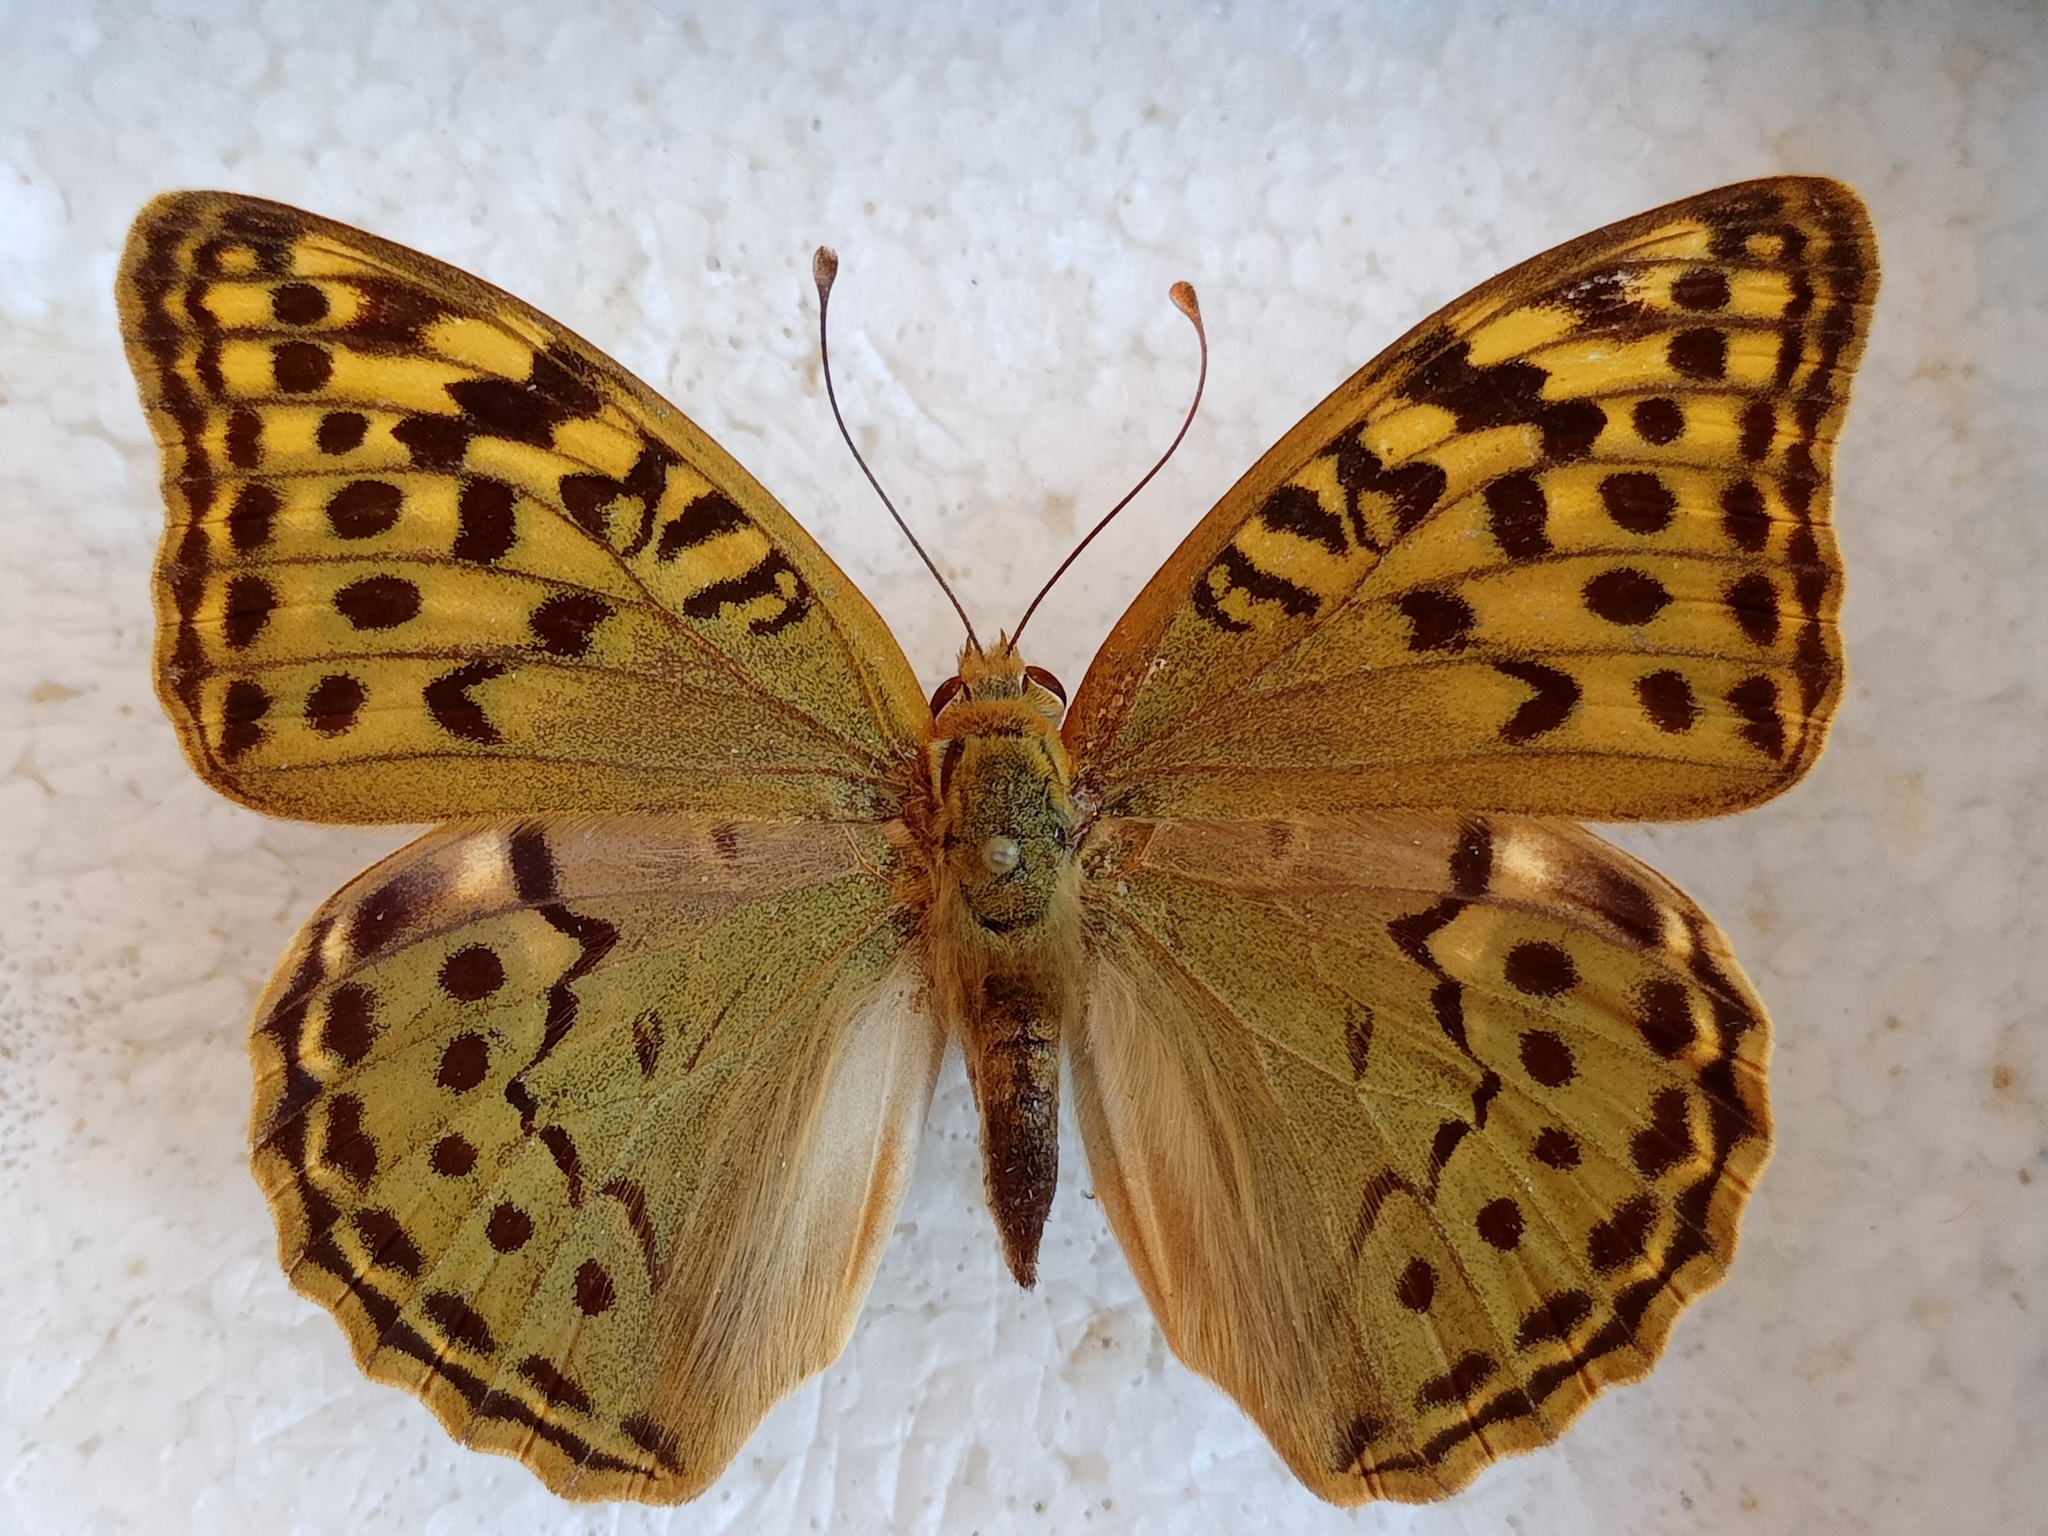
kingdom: Animalia
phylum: Arthropoda
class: Insecta
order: Lepidoptera
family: Nymphalidae
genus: Damora
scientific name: Damora pandora
